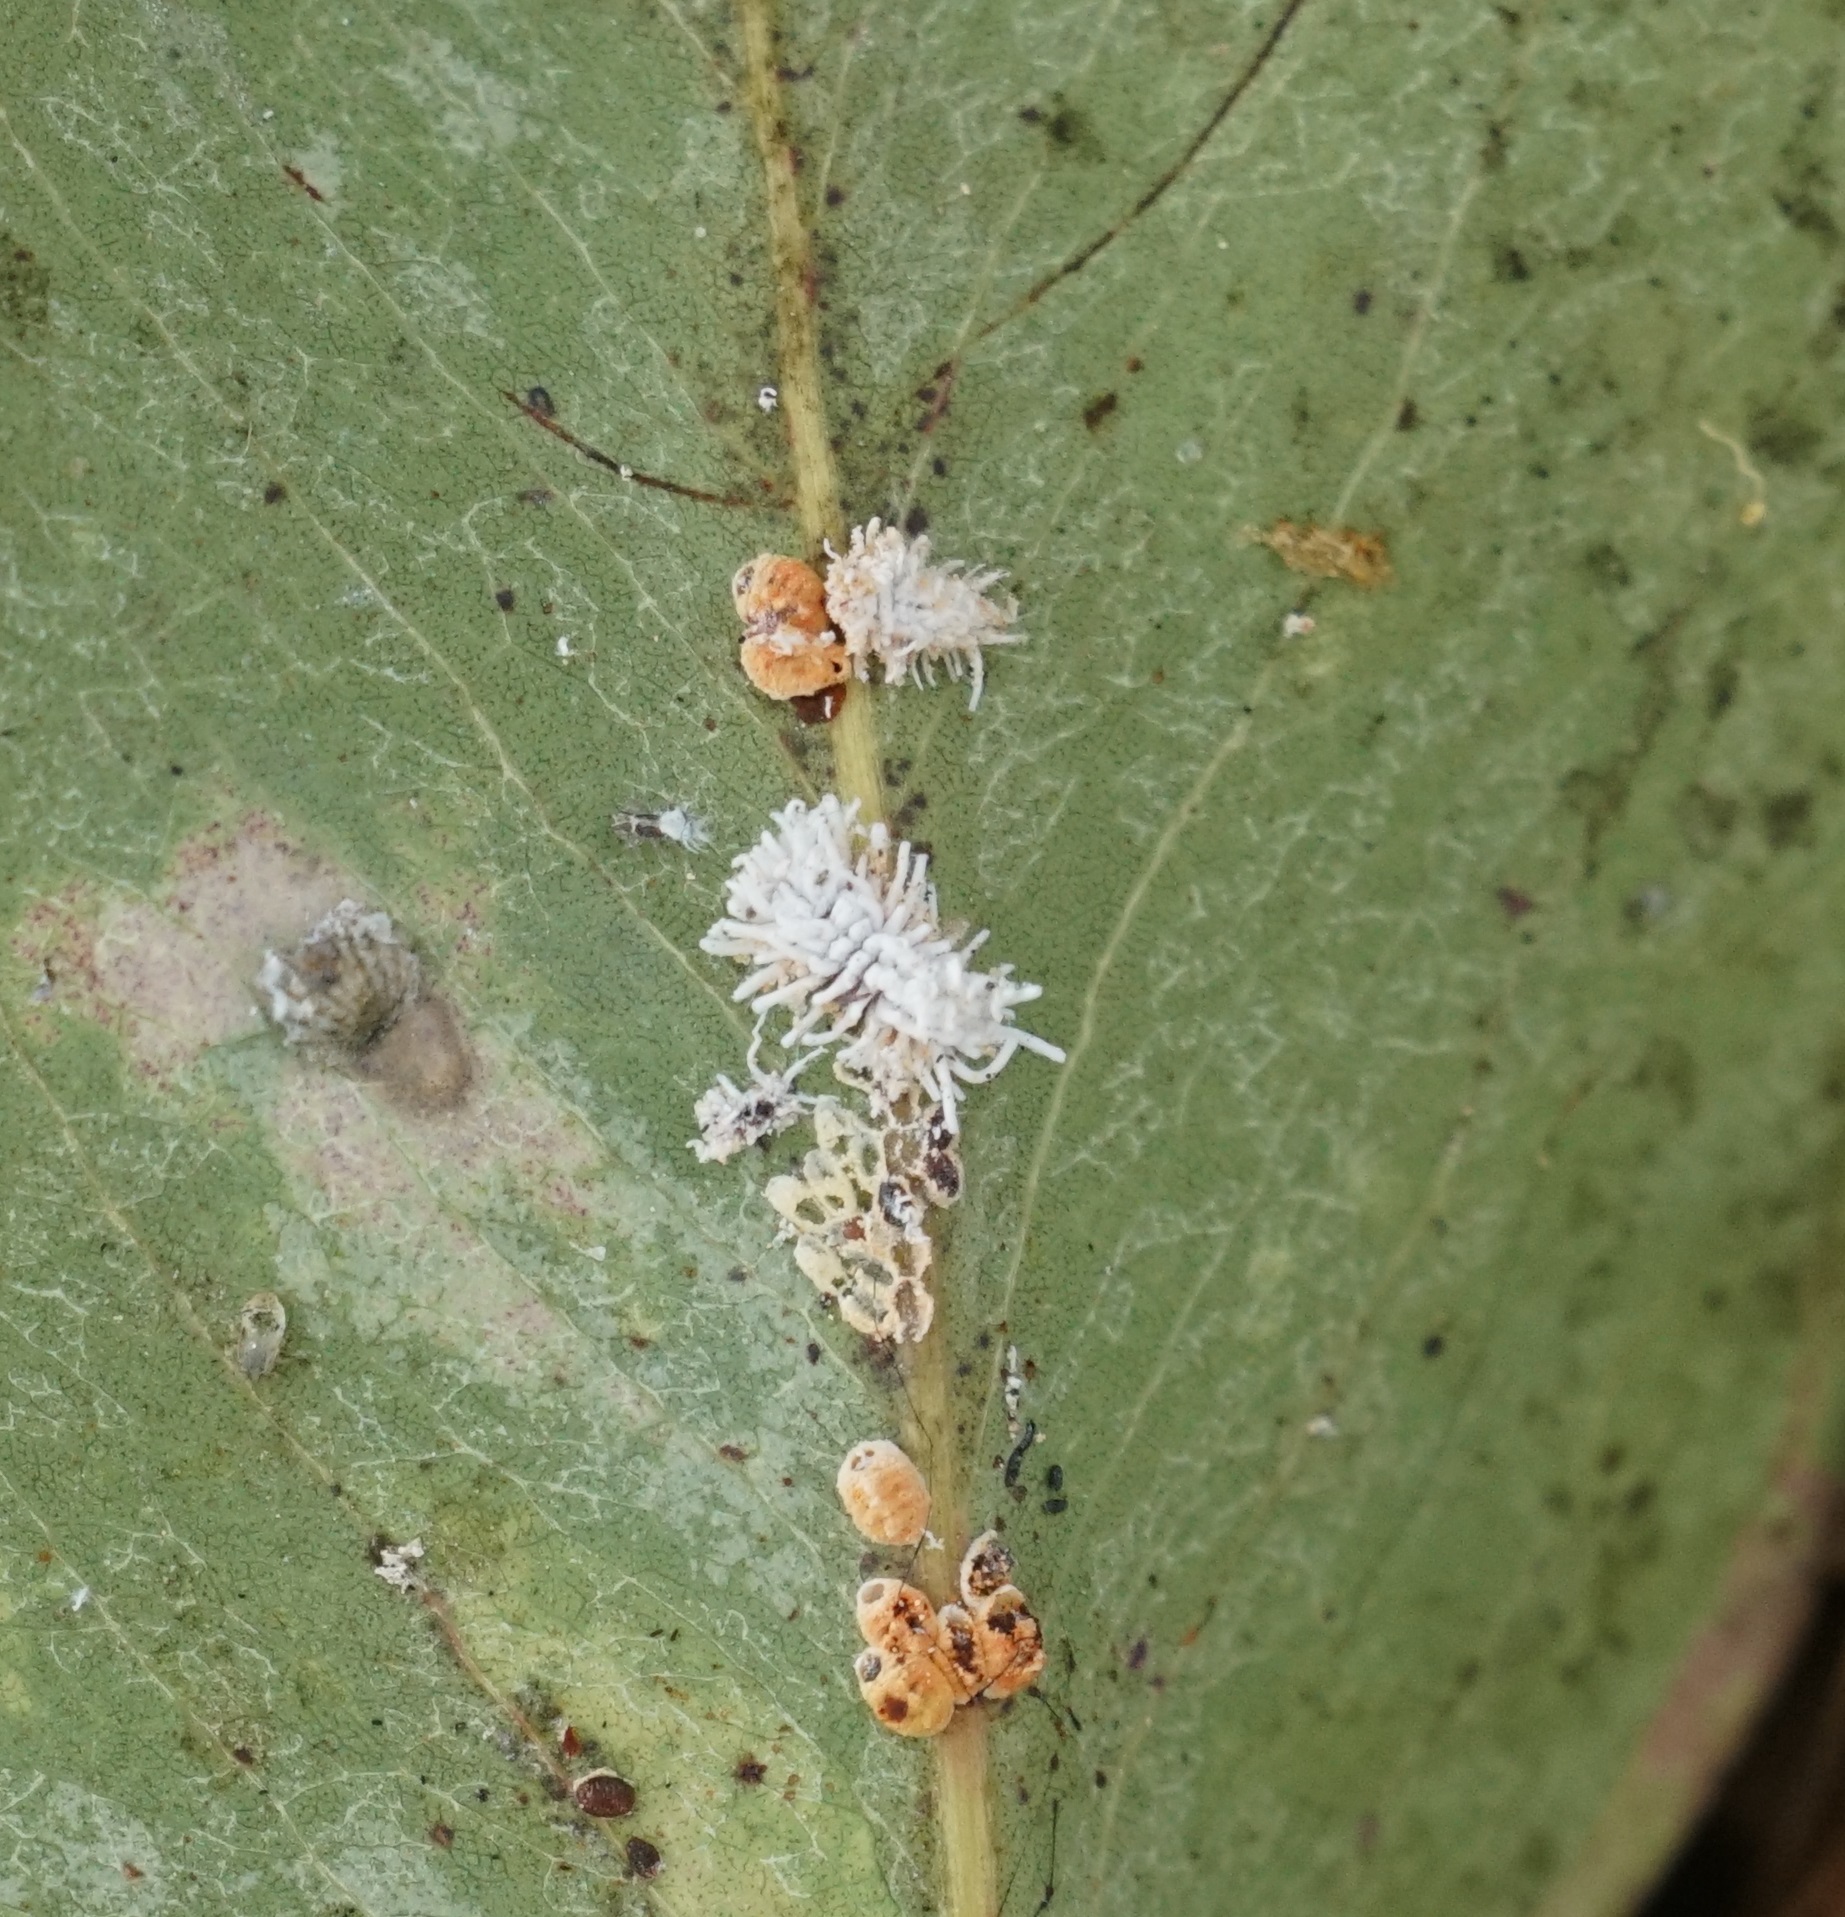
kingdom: Animalia
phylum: Arthropoda
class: Insecta
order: Coleoptera
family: Coccinellidae
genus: Cryptolaemus
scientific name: Cryptolaemus montrouzieri
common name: Mealybug destroyer
